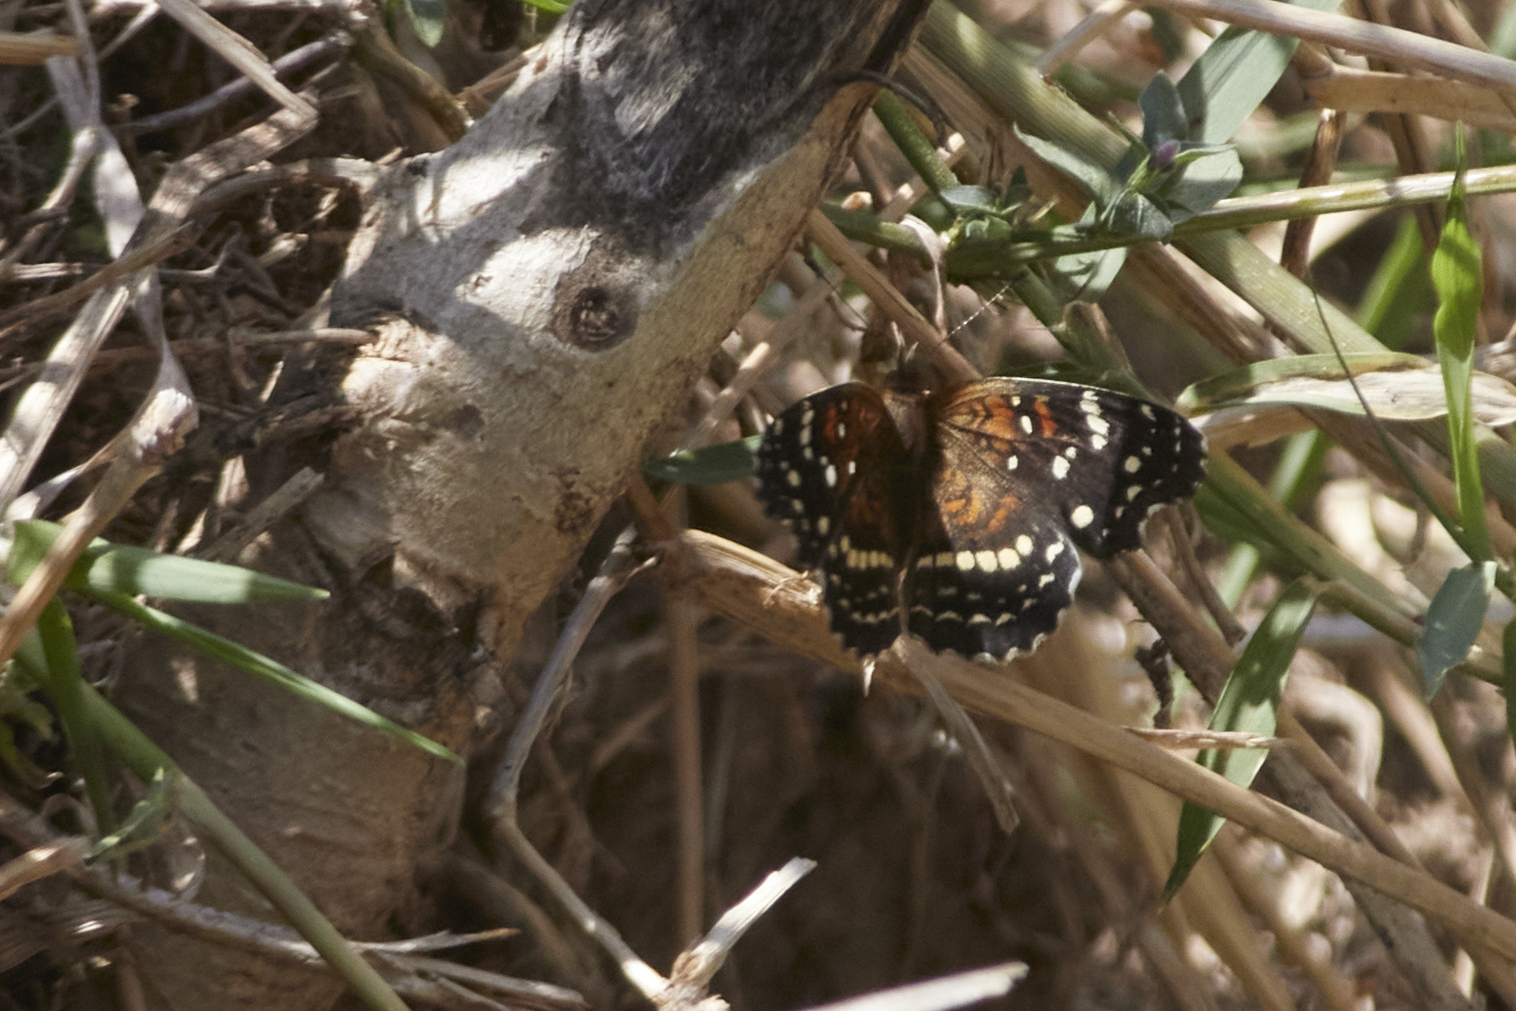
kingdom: Animalia
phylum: Arthropoda
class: Insecta
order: Lepidoptera
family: Nymphalidae
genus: Anthanassa
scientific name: Anthanassa texana
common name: Texan crescent
